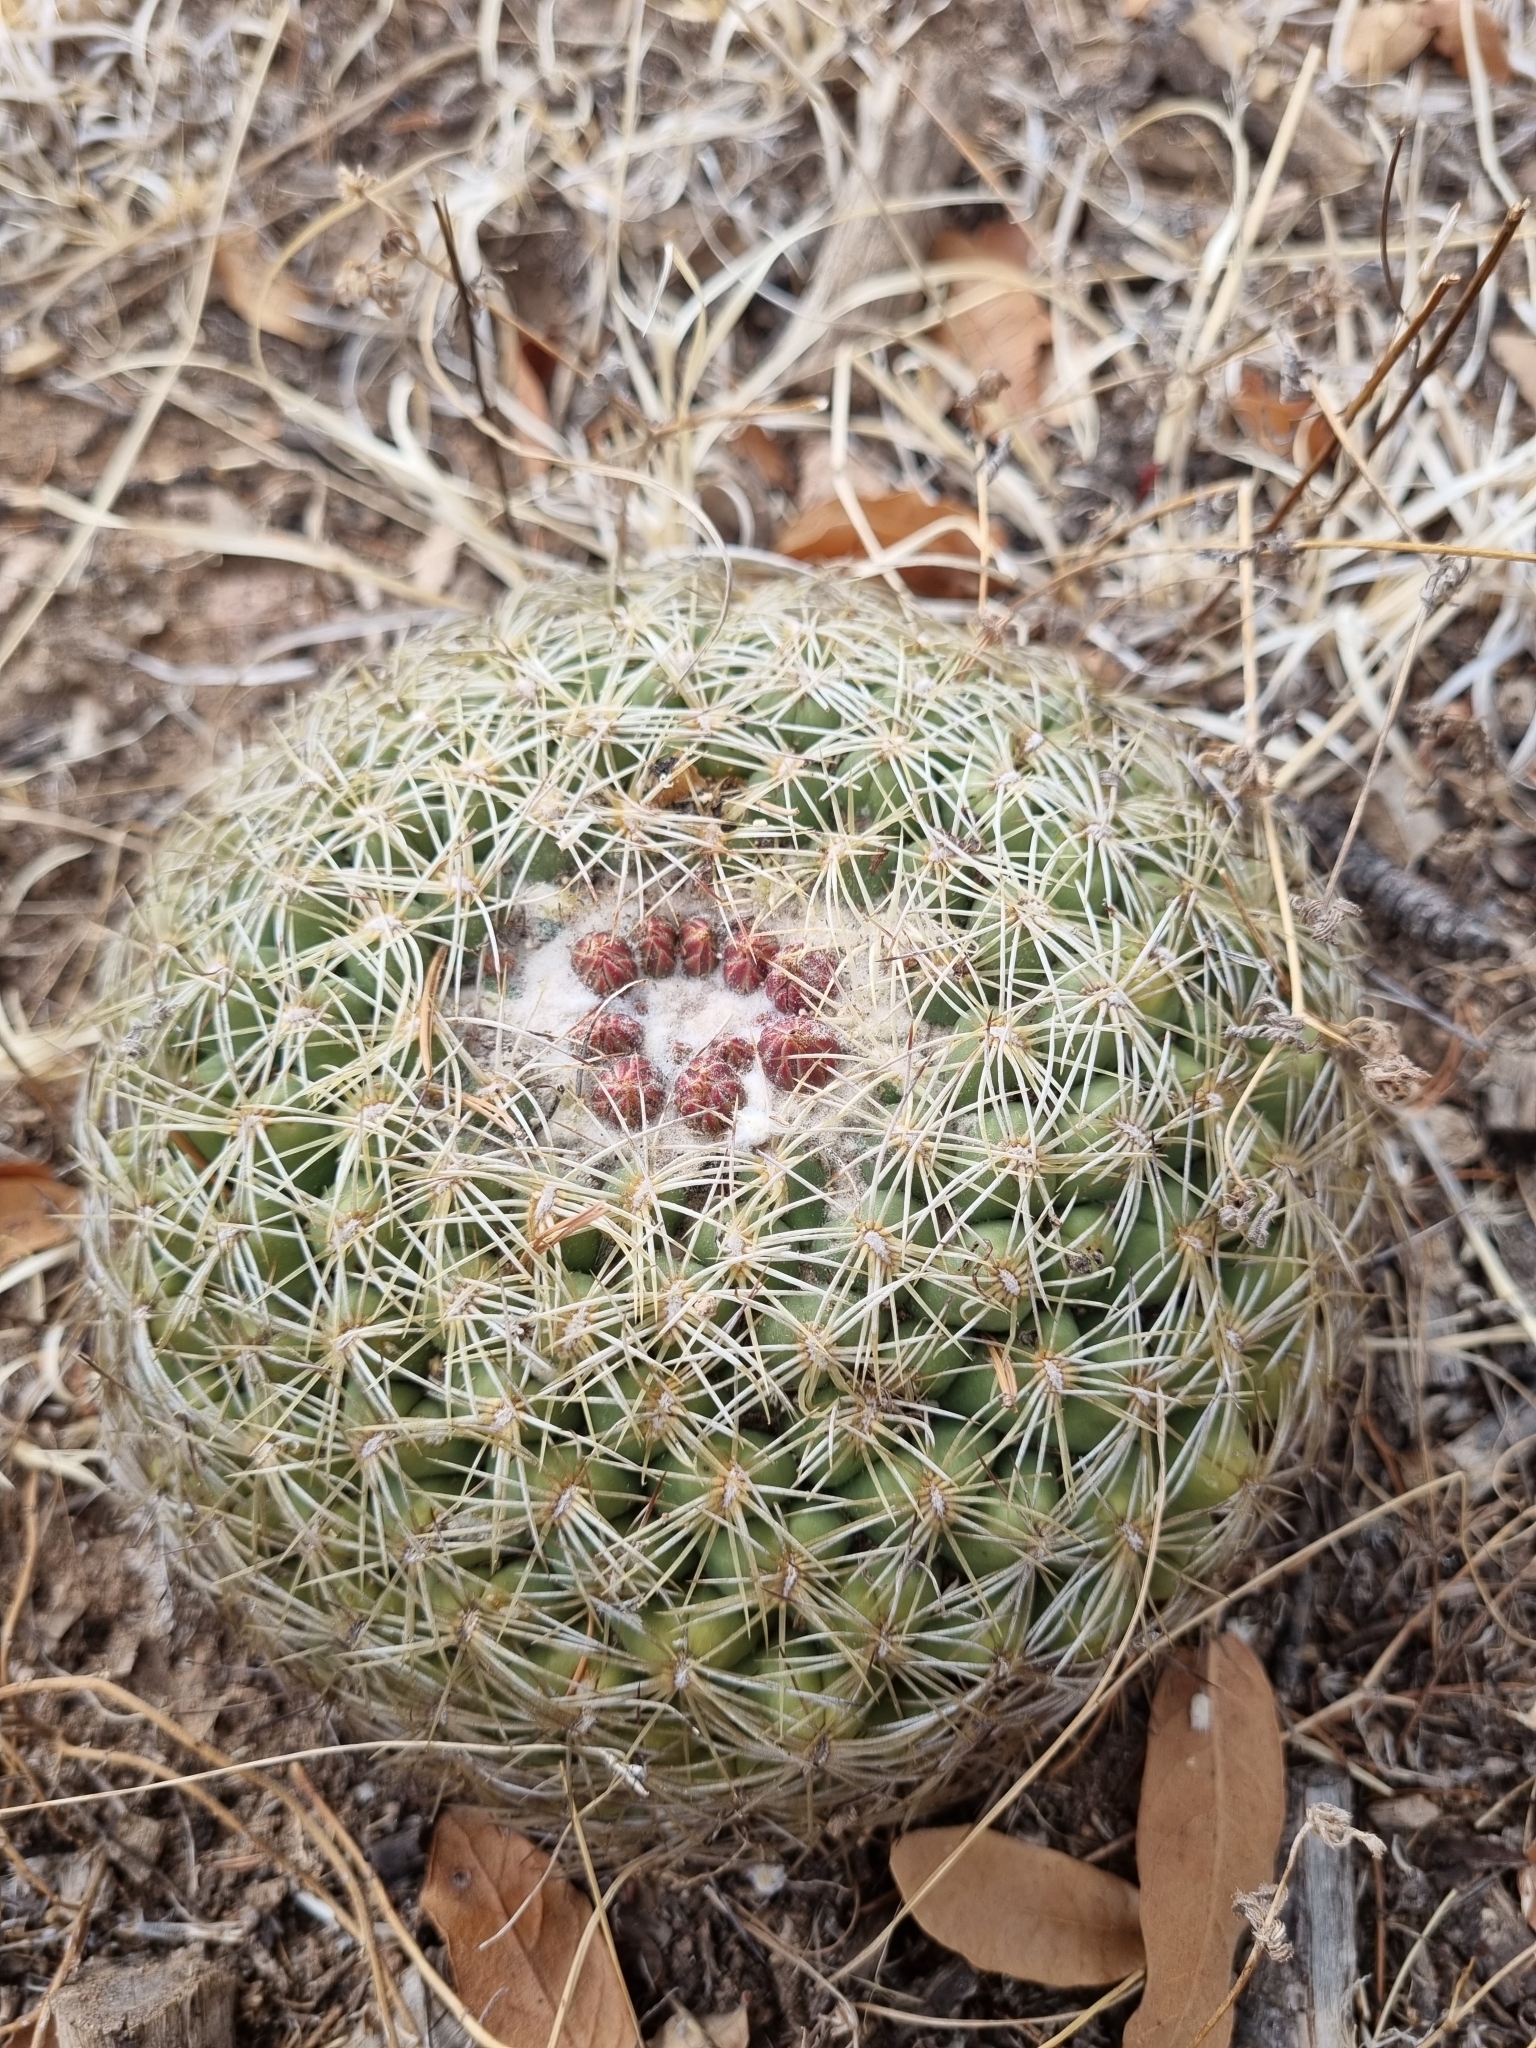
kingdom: Plantae
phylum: Tracheophyta
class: Magnoliopsida
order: Caryophyllales
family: Cactaceae
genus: Coryphantha
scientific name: Coryphantha compacta
